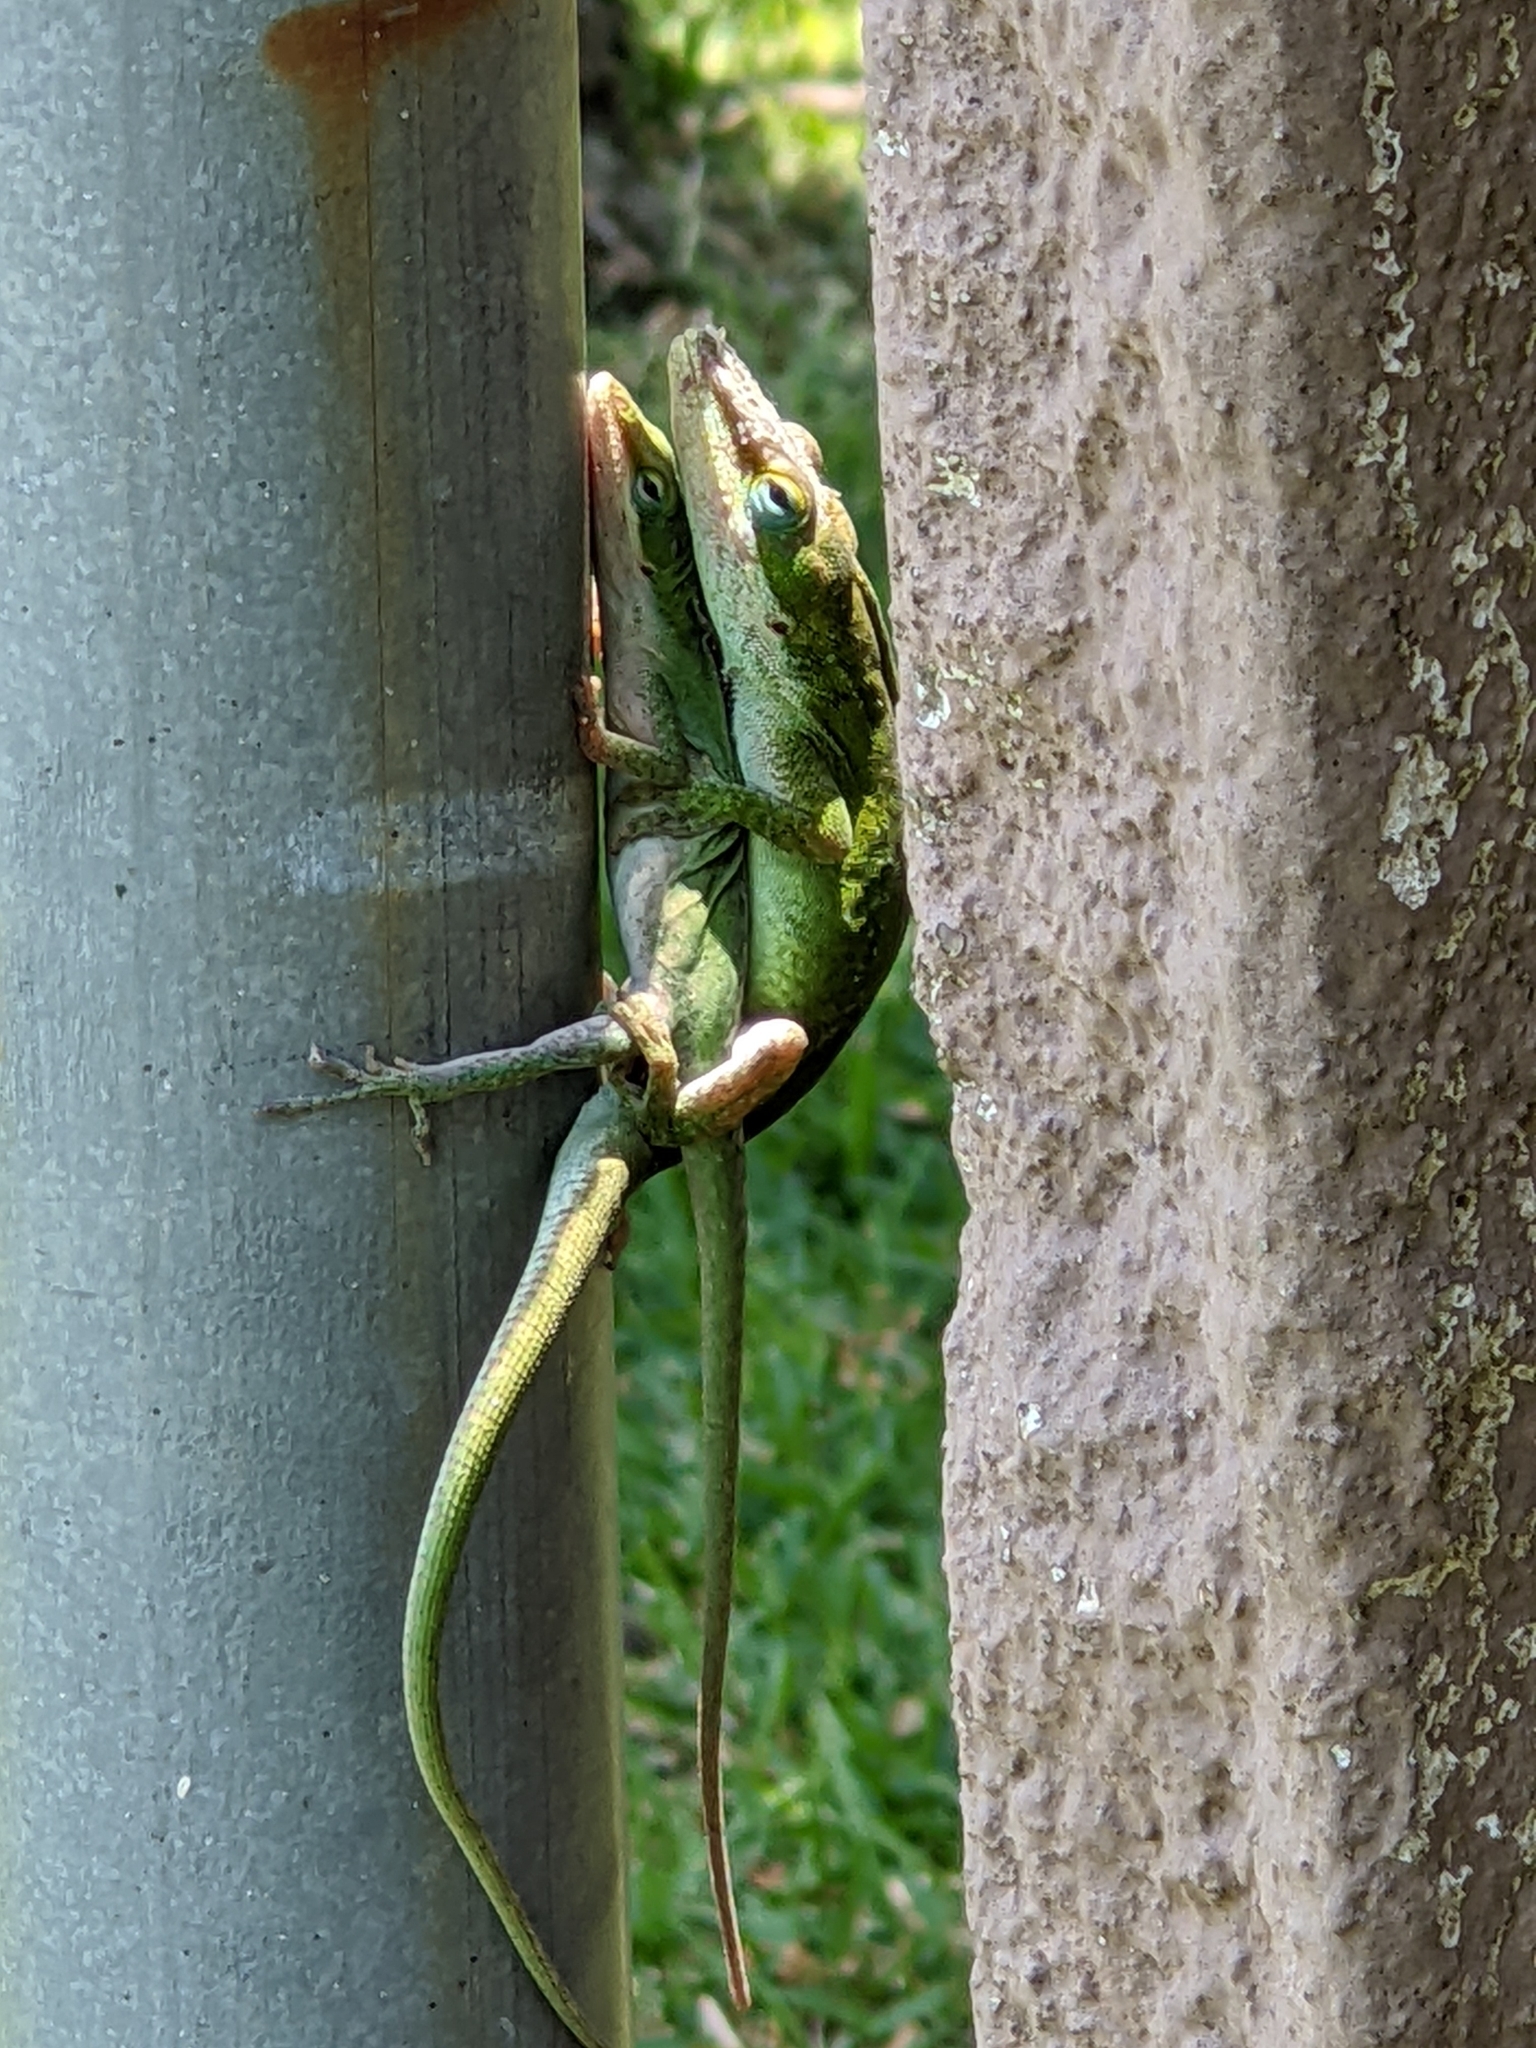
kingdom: Animalia
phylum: Chordata
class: Squamata
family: Dactyloidae
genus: Anolis
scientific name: Anolis carolinensis
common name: Green anole
